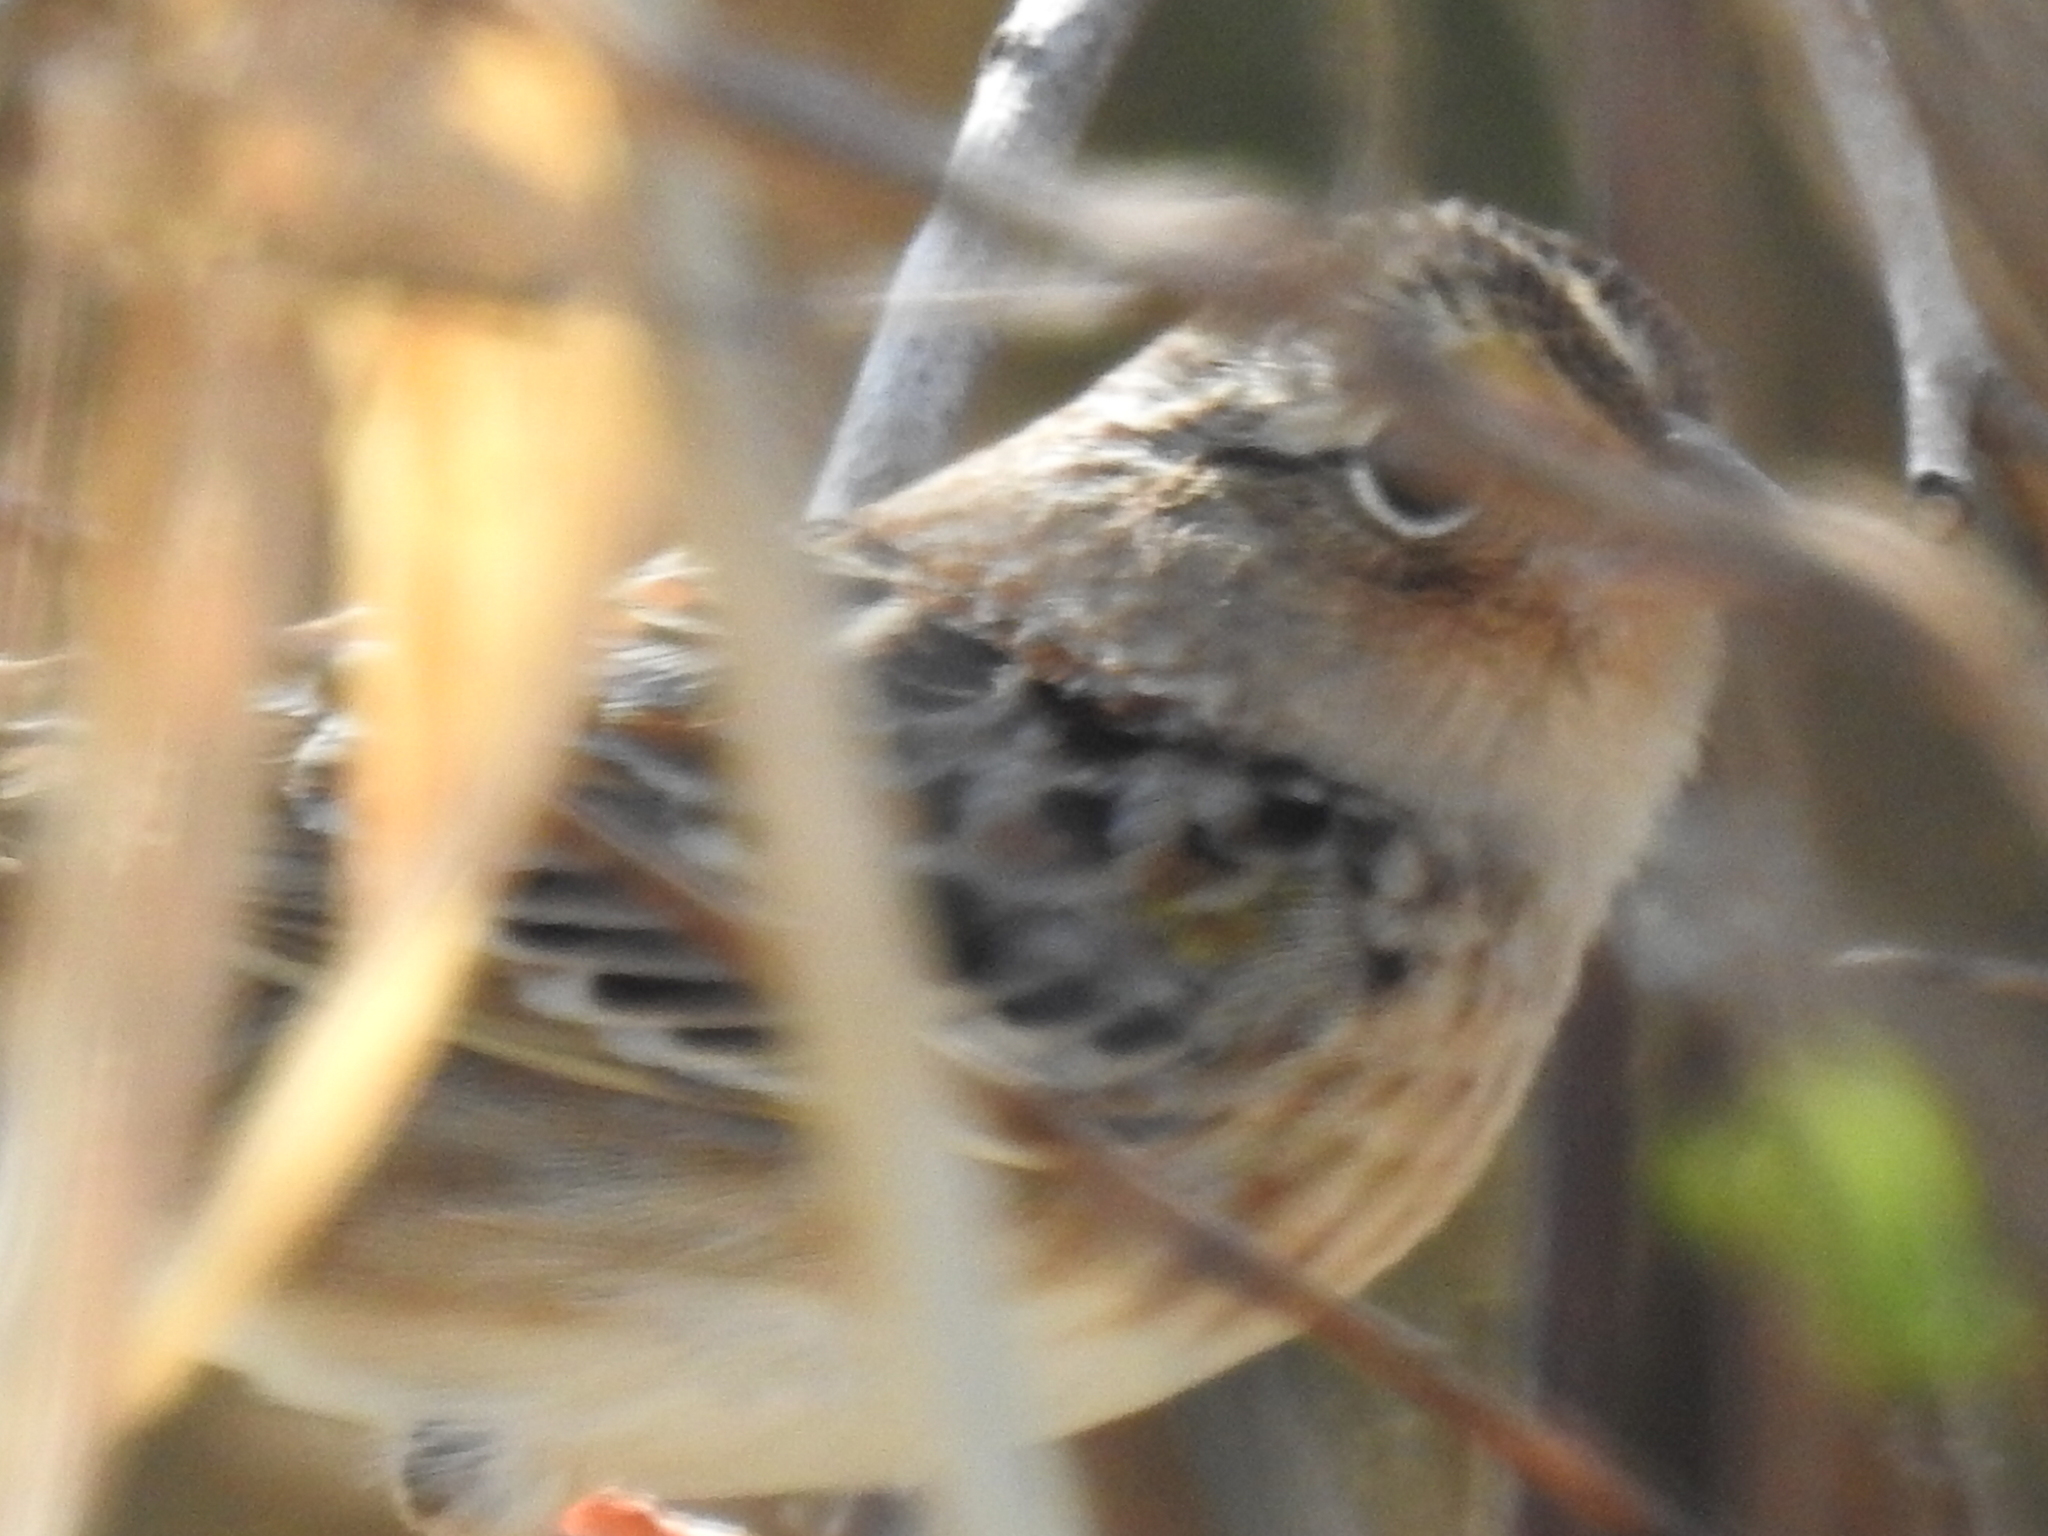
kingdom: Animalia
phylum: Chordata
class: Aves
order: Passeriformes
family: Passerellidae
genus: Ammodramus
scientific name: Ammodramus savannarum
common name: Grasshopper sparrow
